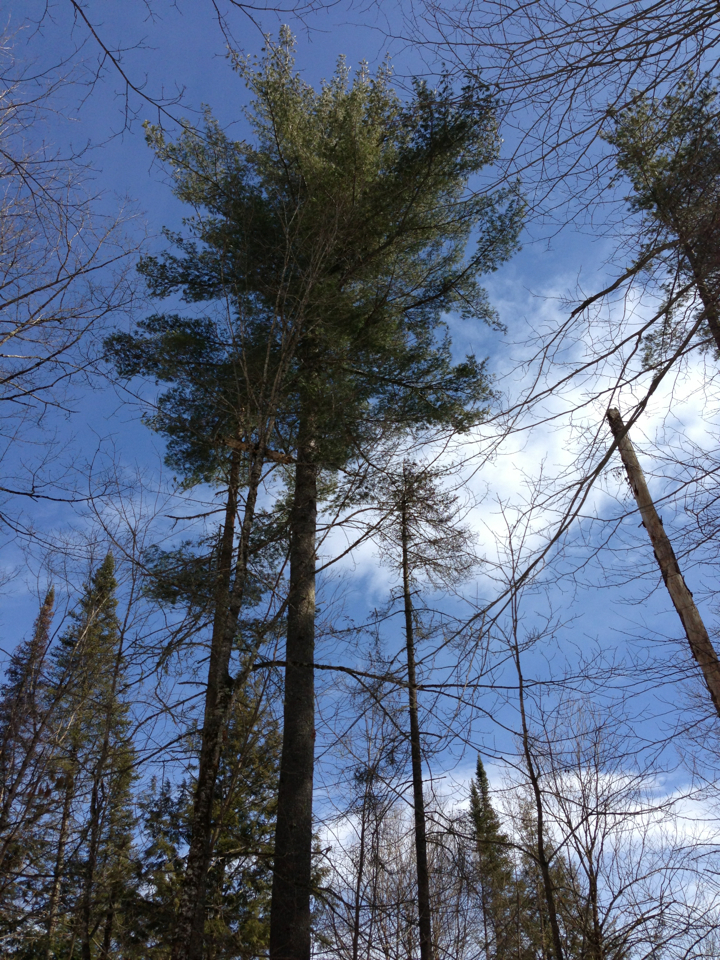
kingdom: Plantae
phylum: Tracheophyta
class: Pinopsida
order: Pinales
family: Pinaceae
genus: Pinus
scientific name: Pinus strobus
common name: Weymouth pine
